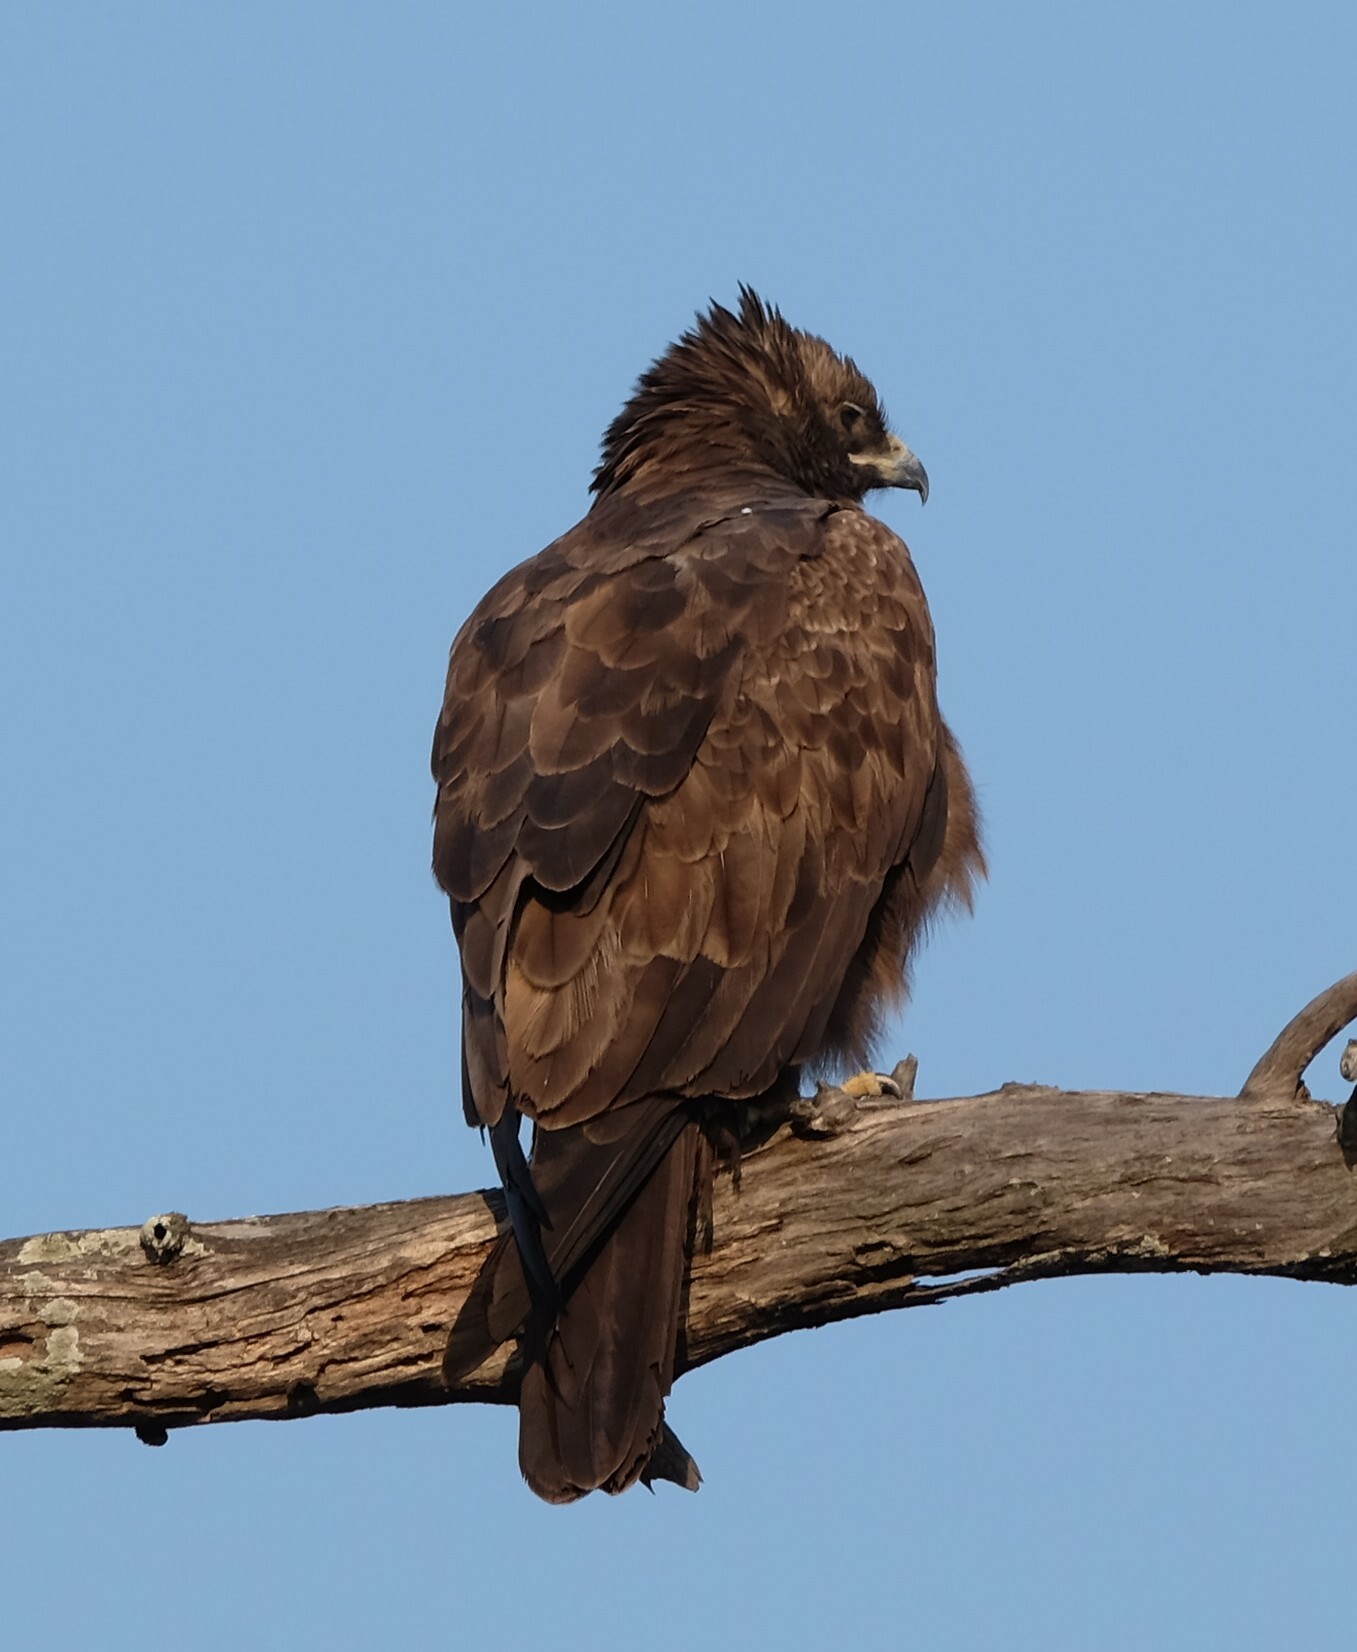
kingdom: Animalia
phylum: Chordata
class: Aves
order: Accipitriformes
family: Accipitridae
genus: Hieraaetus
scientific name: Hieraaetus wahlbergi
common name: Wahlberg's eagle
